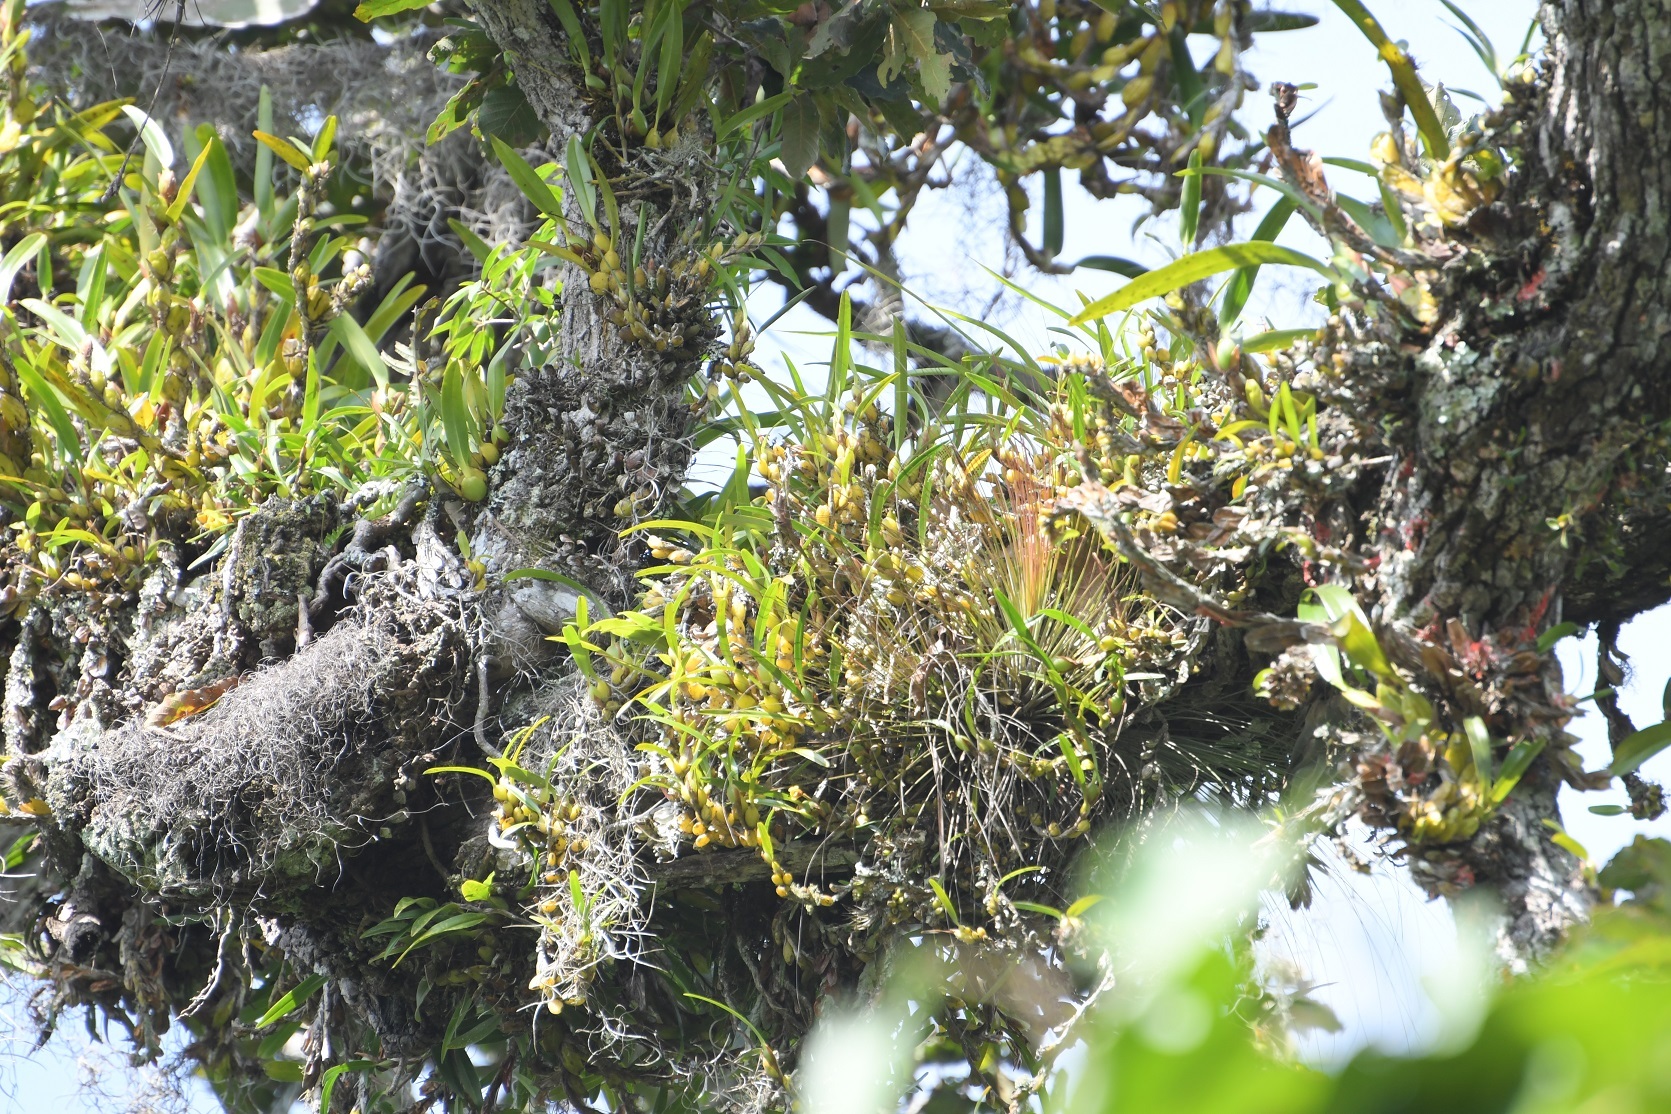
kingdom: Plantae
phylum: Tracheophyta
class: Liliopsida
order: Asparagales
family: Orchidaceae
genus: Maxillaria
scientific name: Maxillaria densa
